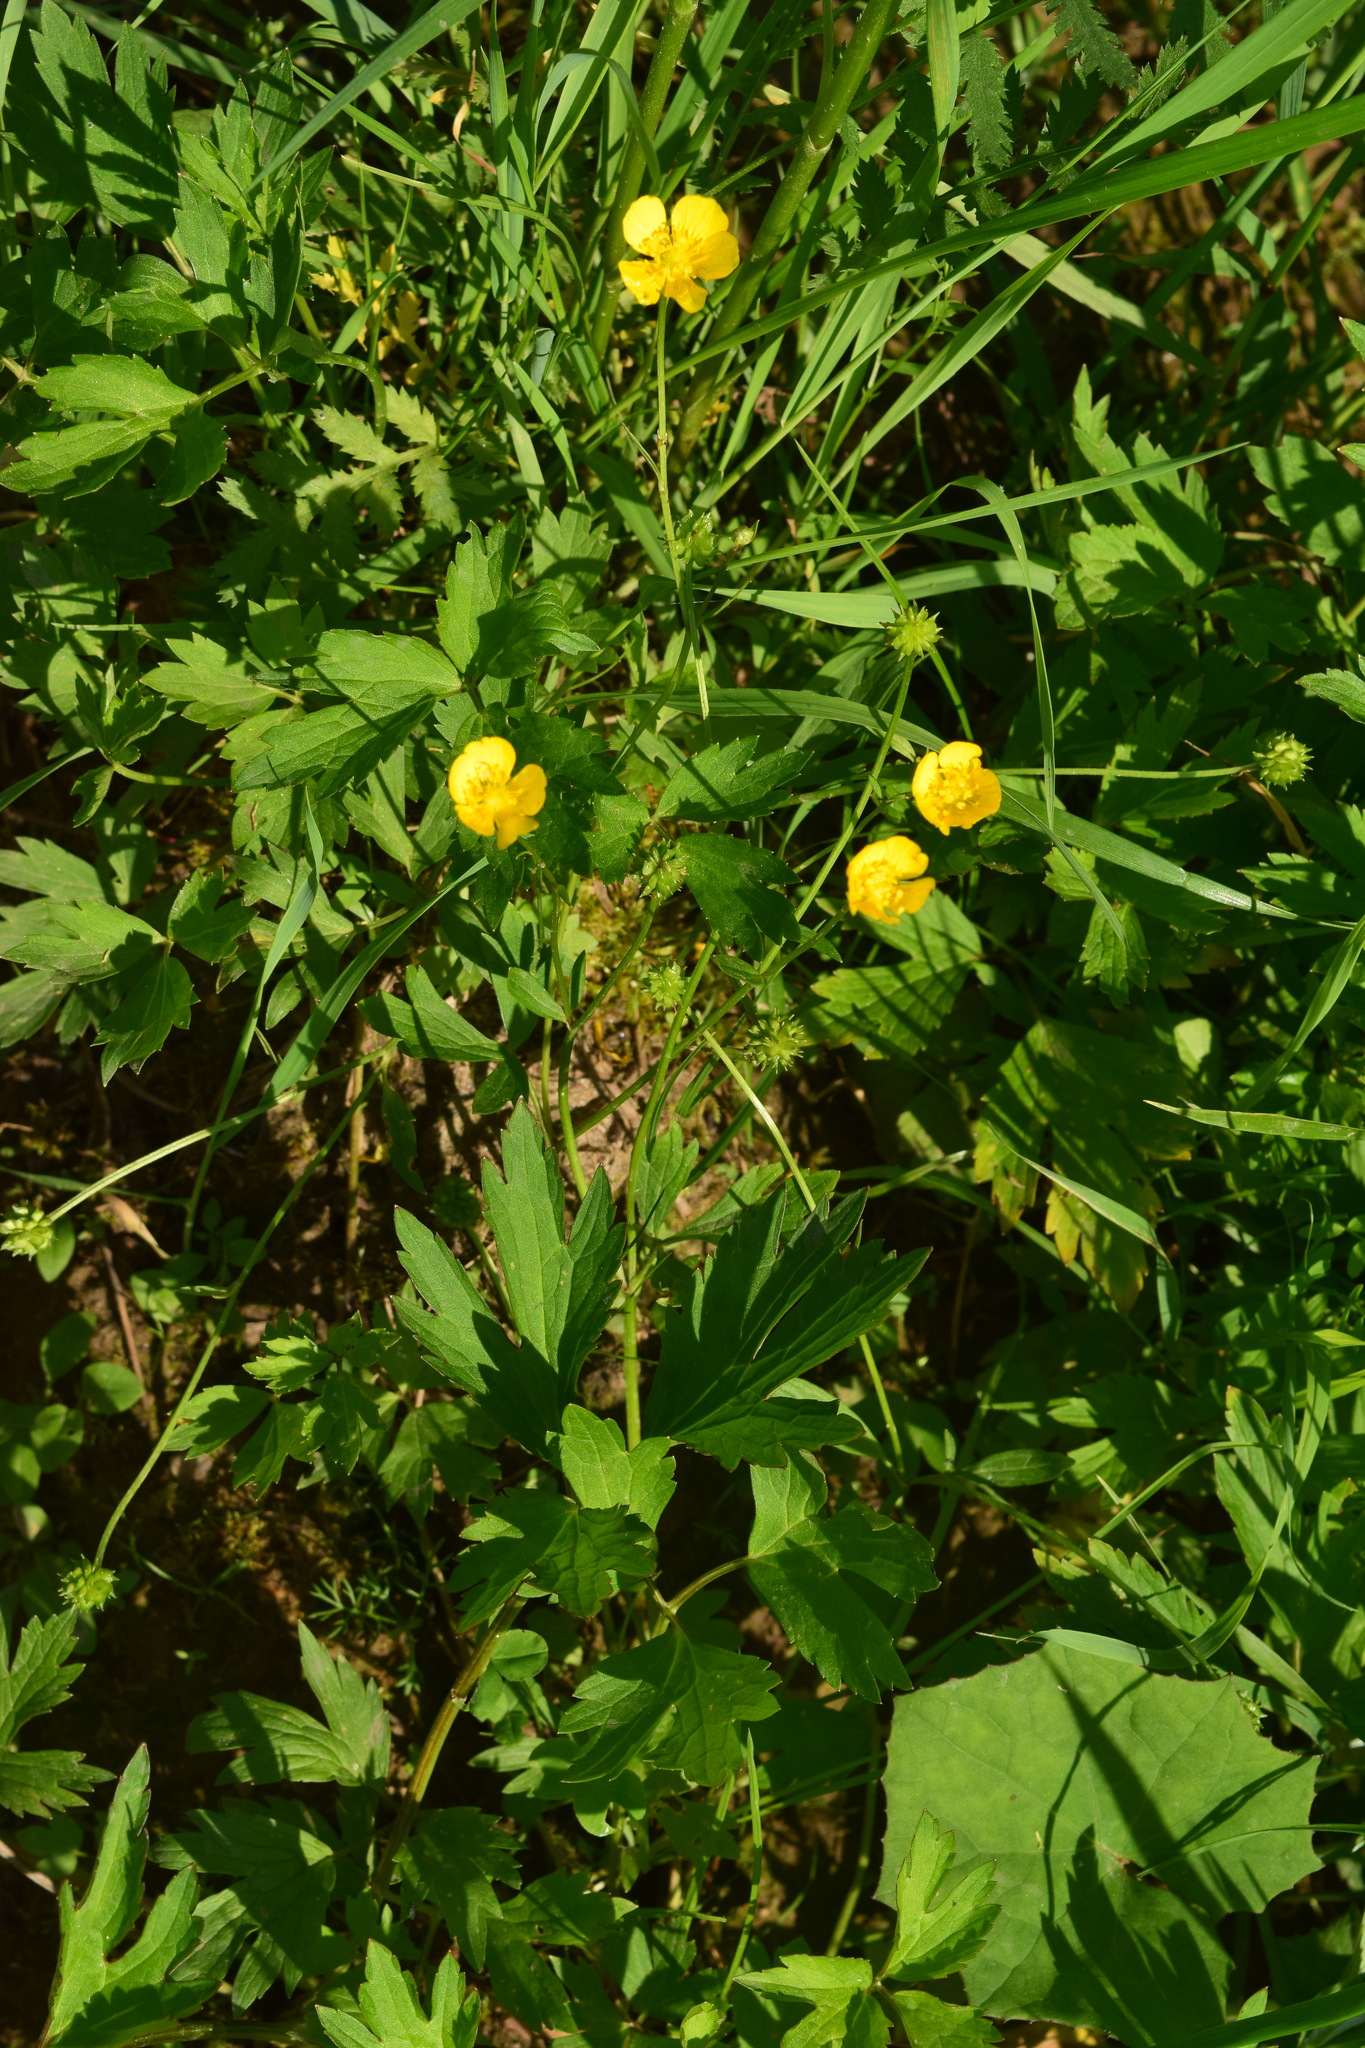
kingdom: Plantae
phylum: Tracheophyta
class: Magnoliopsida
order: Ranunculales
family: Ranunculaceae
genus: Ranunculus
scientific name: Ranunculus repens
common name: Creeping buttercup
